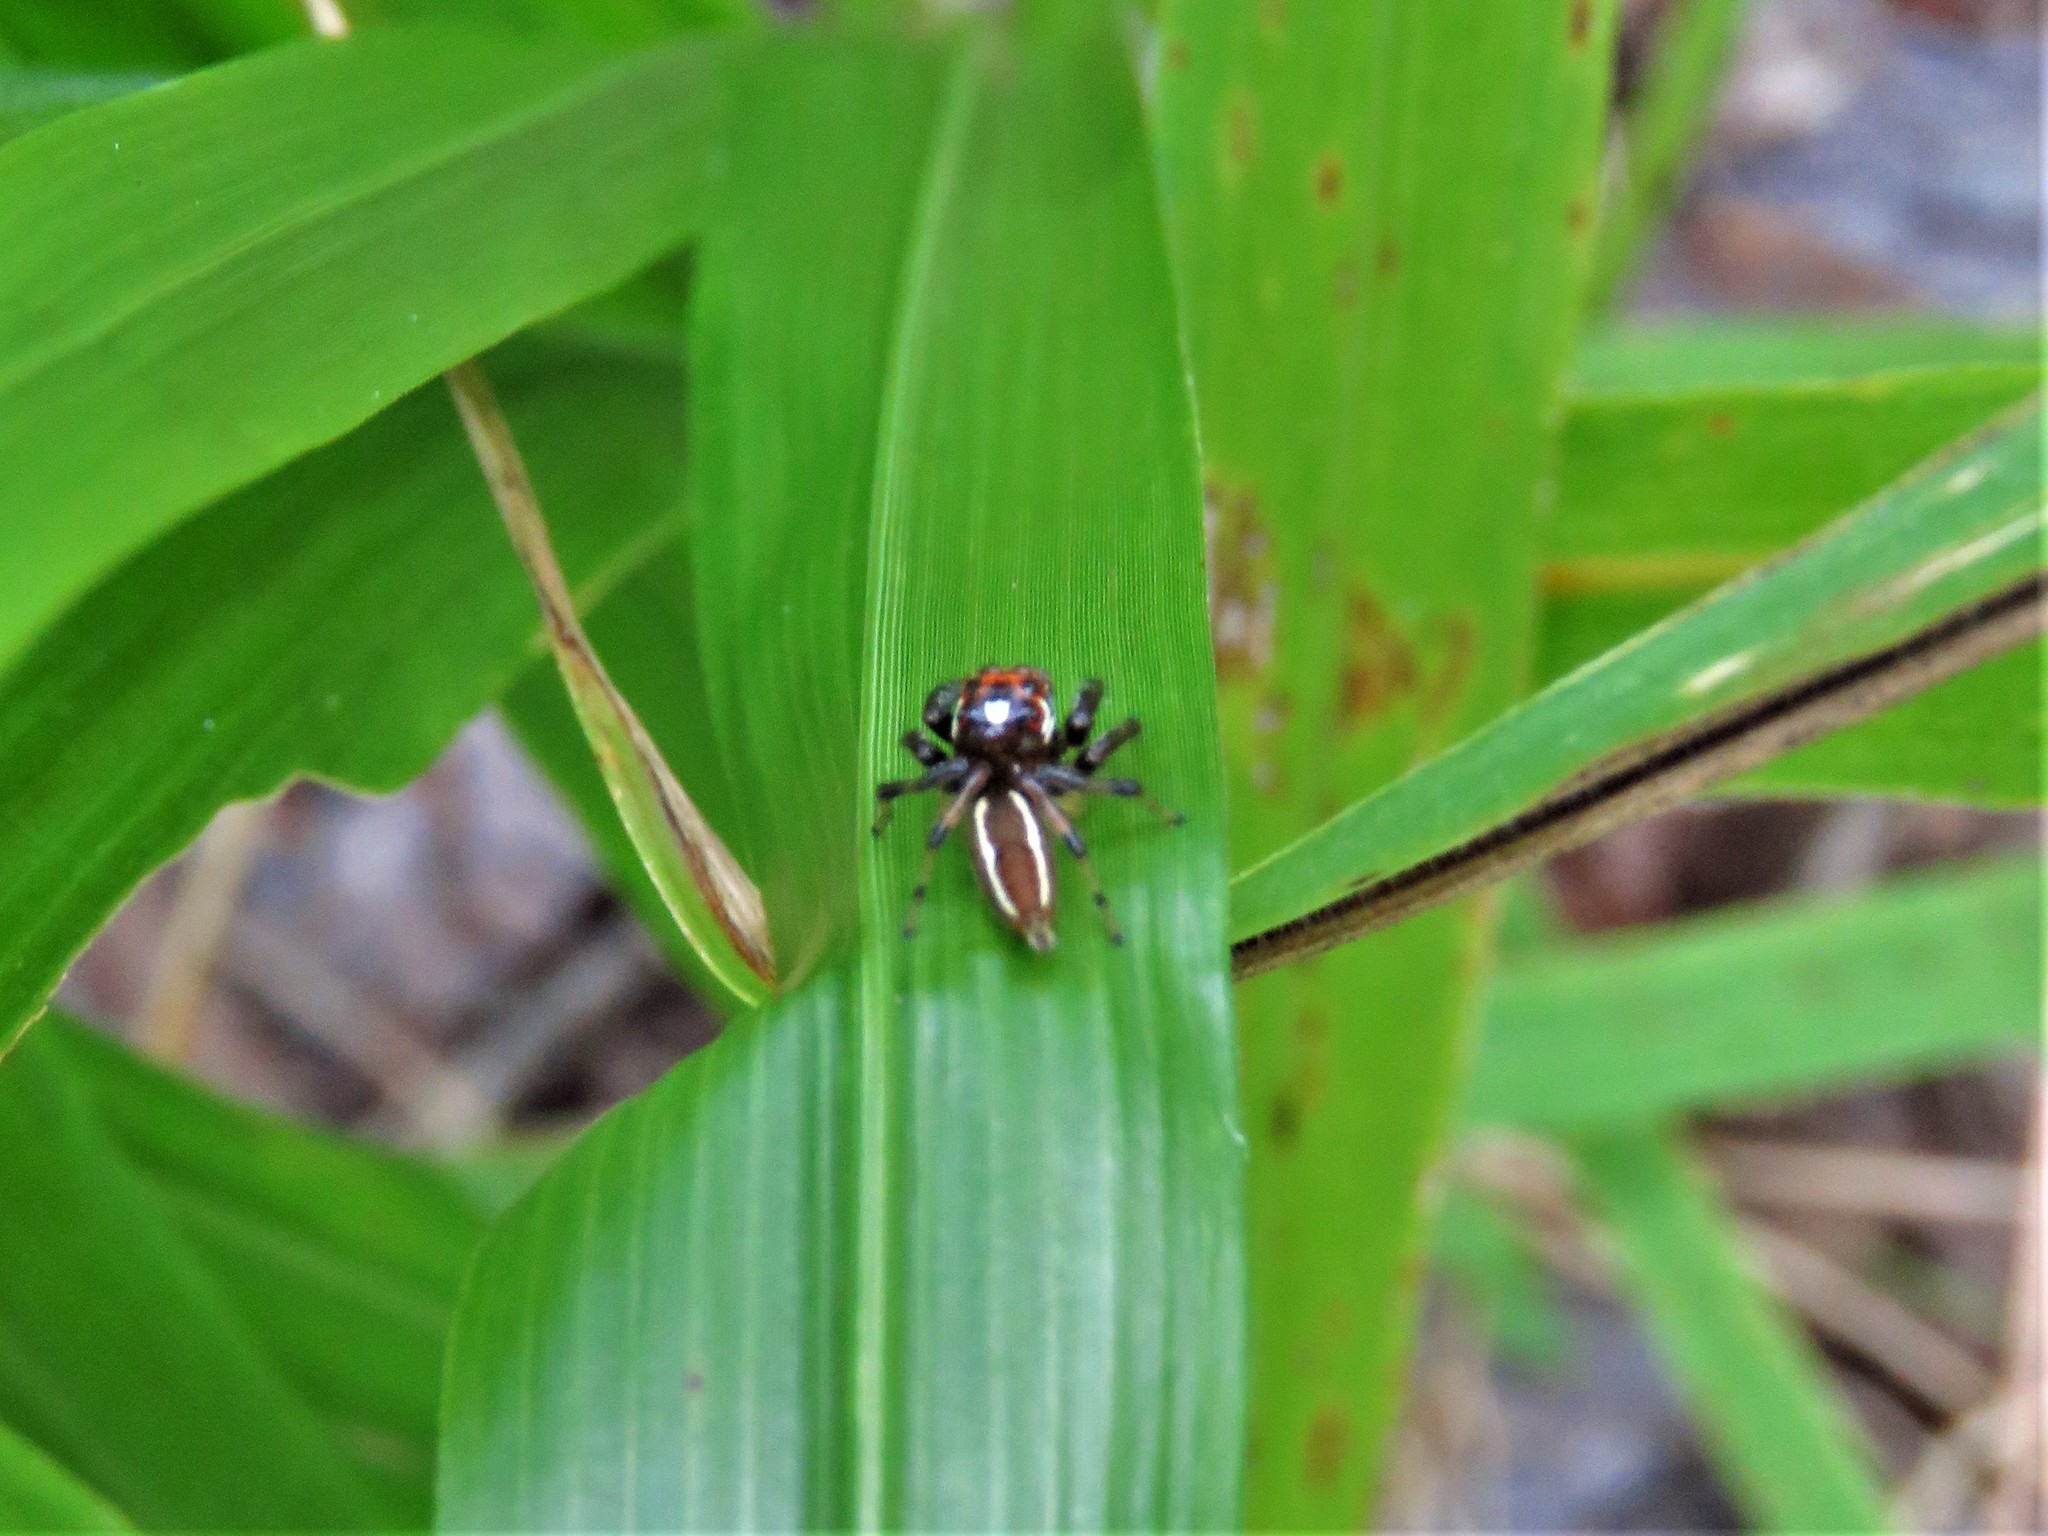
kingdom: Animalia
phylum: Arthropoda
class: Arachnida
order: Araneae
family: Salticidae
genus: Colonus
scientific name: Colonus sylvanus
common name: Jumping spiders
